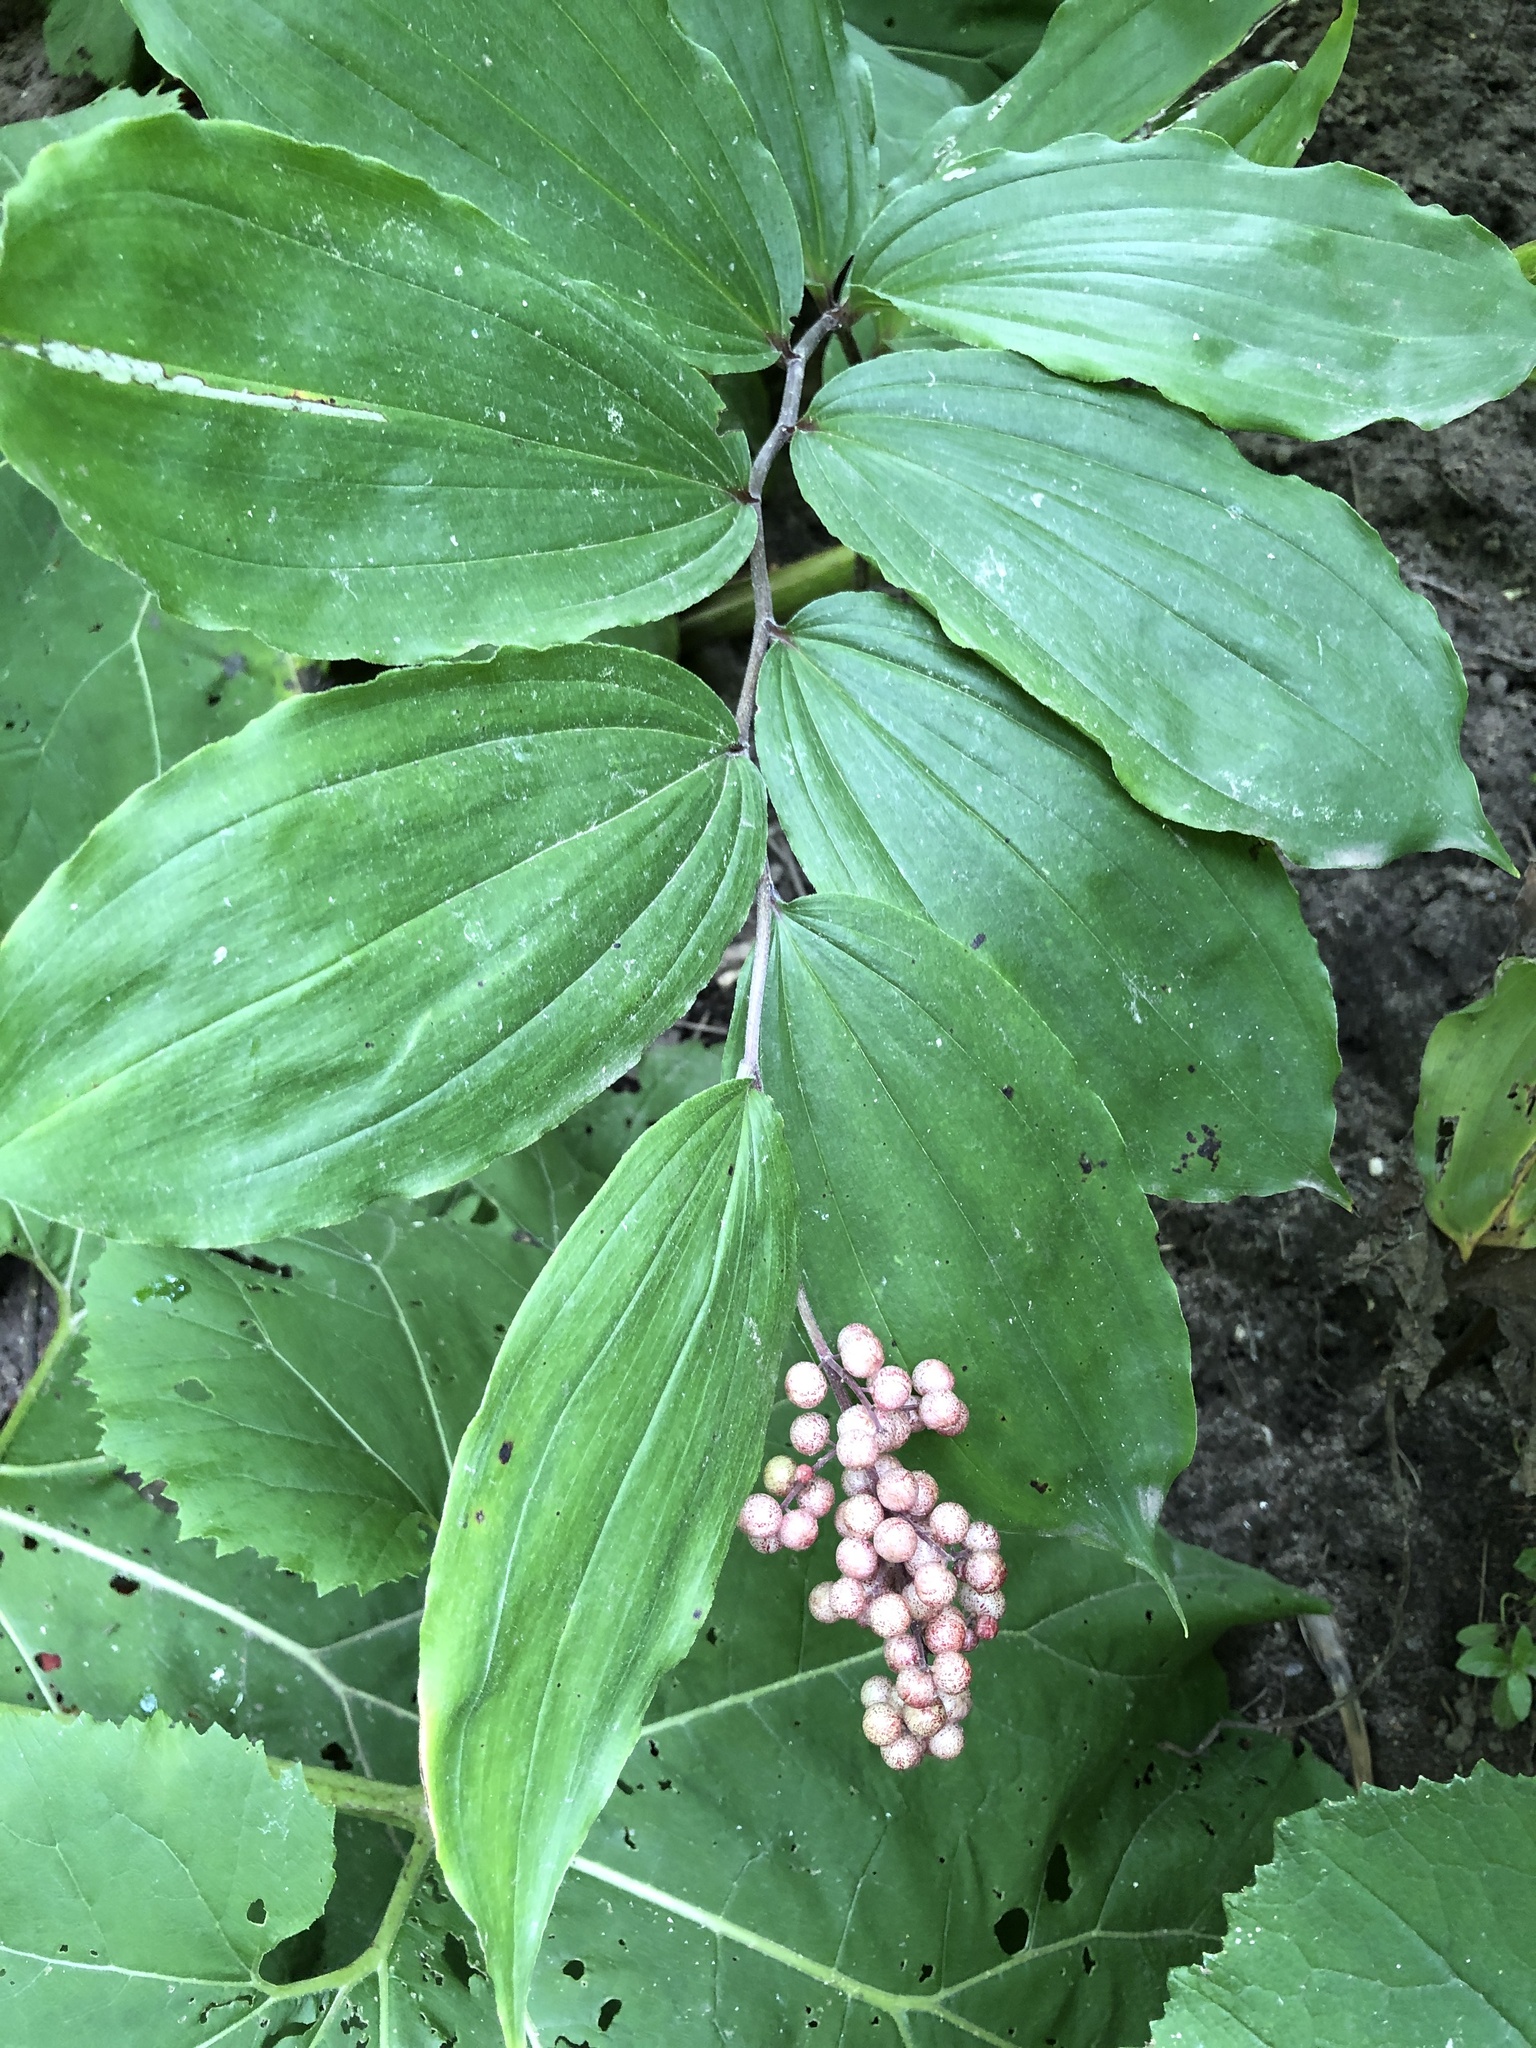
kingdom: Plantae
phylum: Tracheophyta
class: Liliopsida
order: Asparagales
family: Asparagaceae
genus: Maianthemum
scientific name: Maianthemum racemosum
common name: False spikenard
